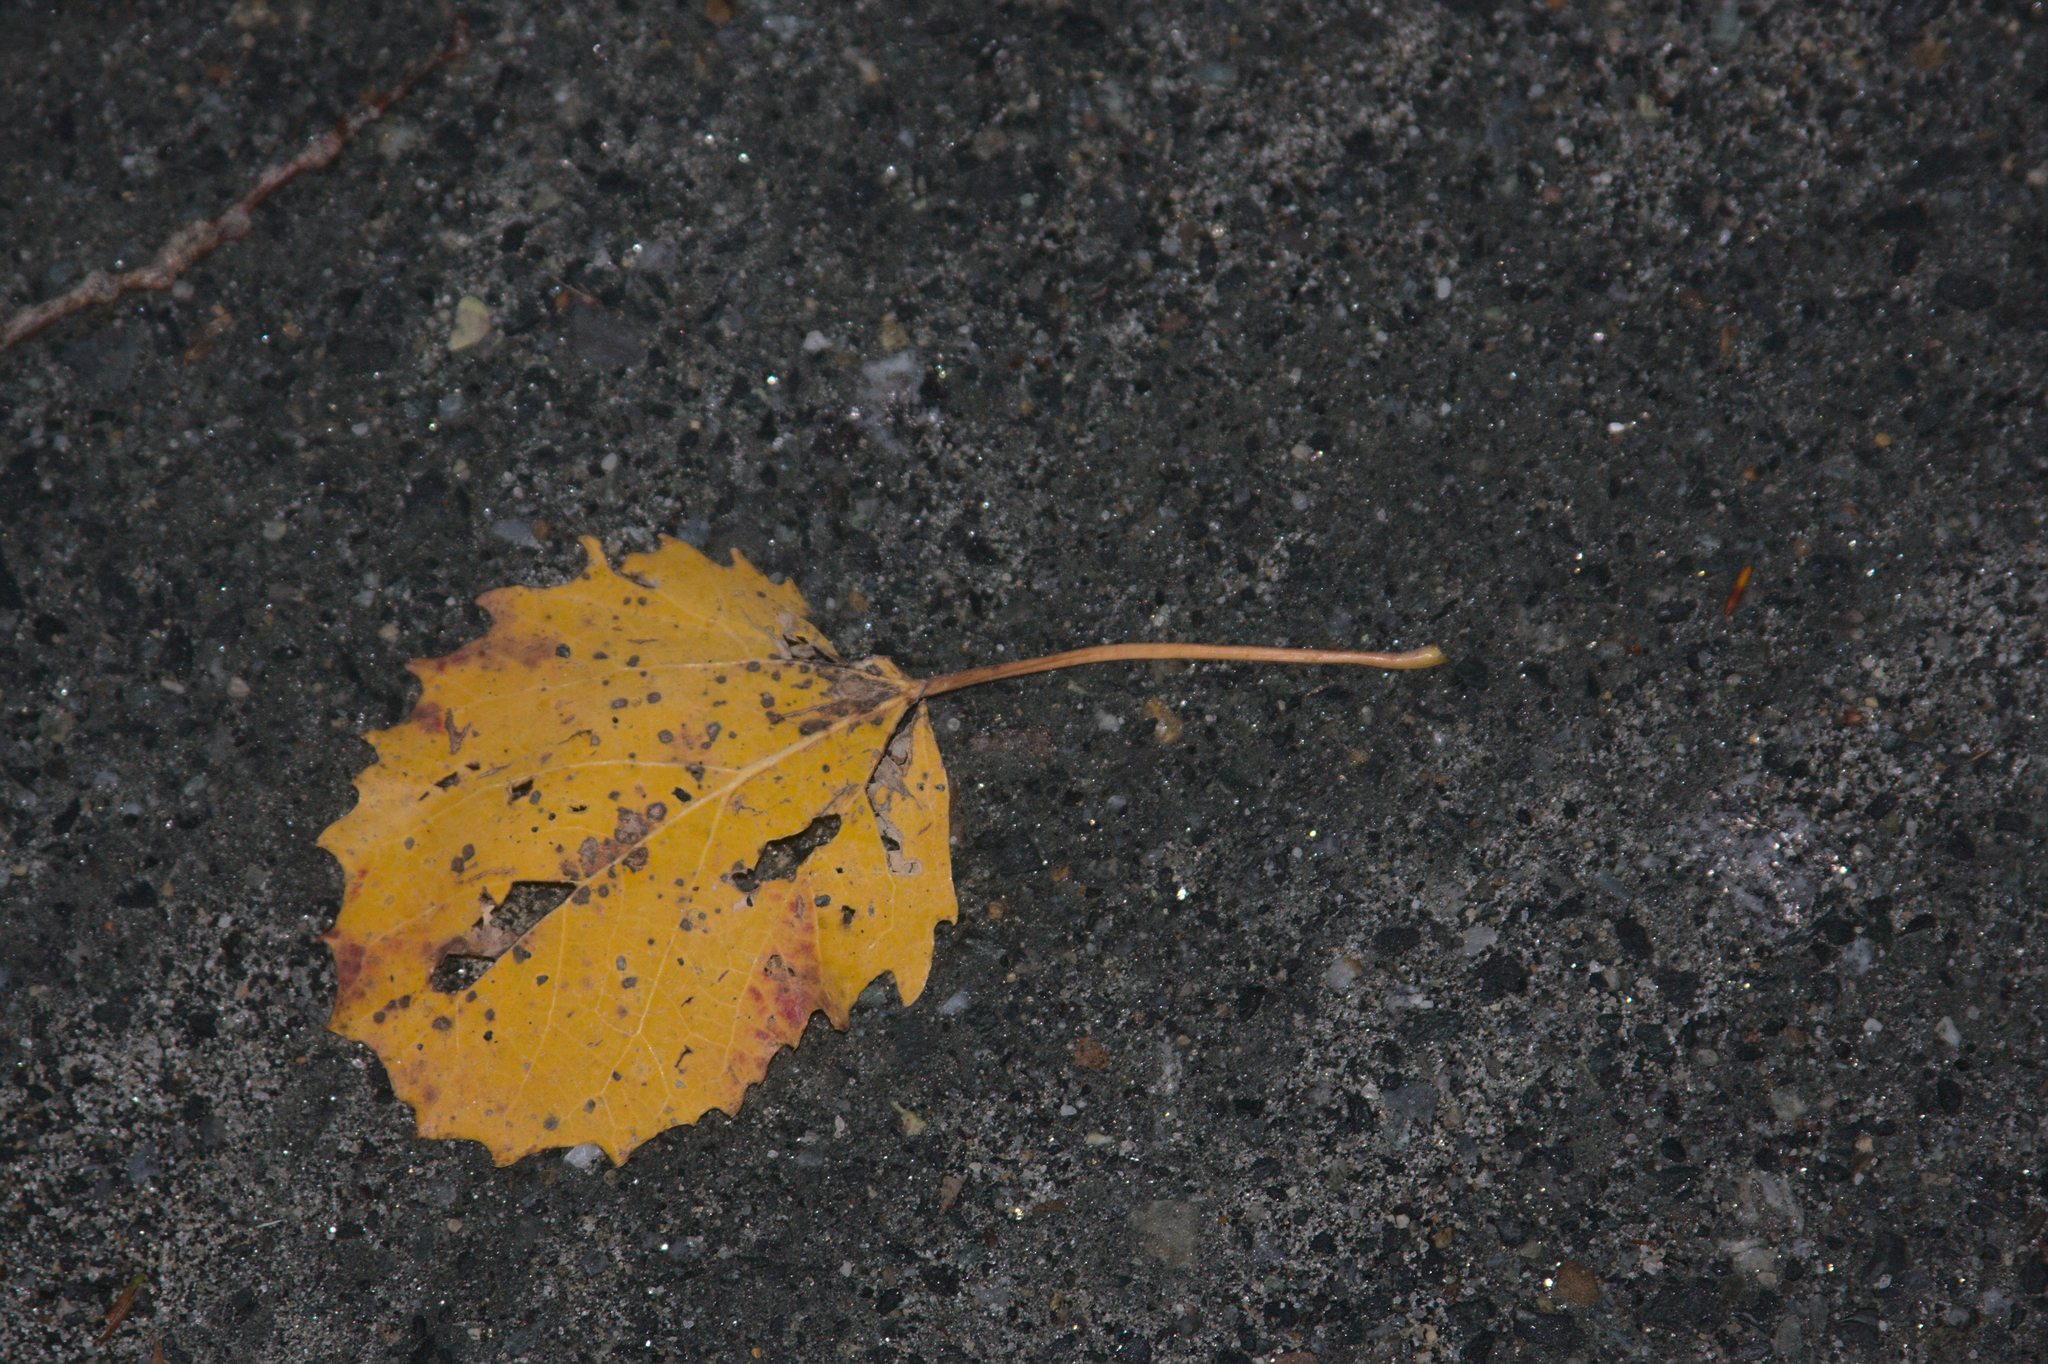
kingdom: Plantae
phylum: Tracheophyta
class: Magnoliopsida
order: Malpighiales
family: Salicaceae
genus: Populus
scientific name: Populus grandidentata
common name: Bigtooth aspen
